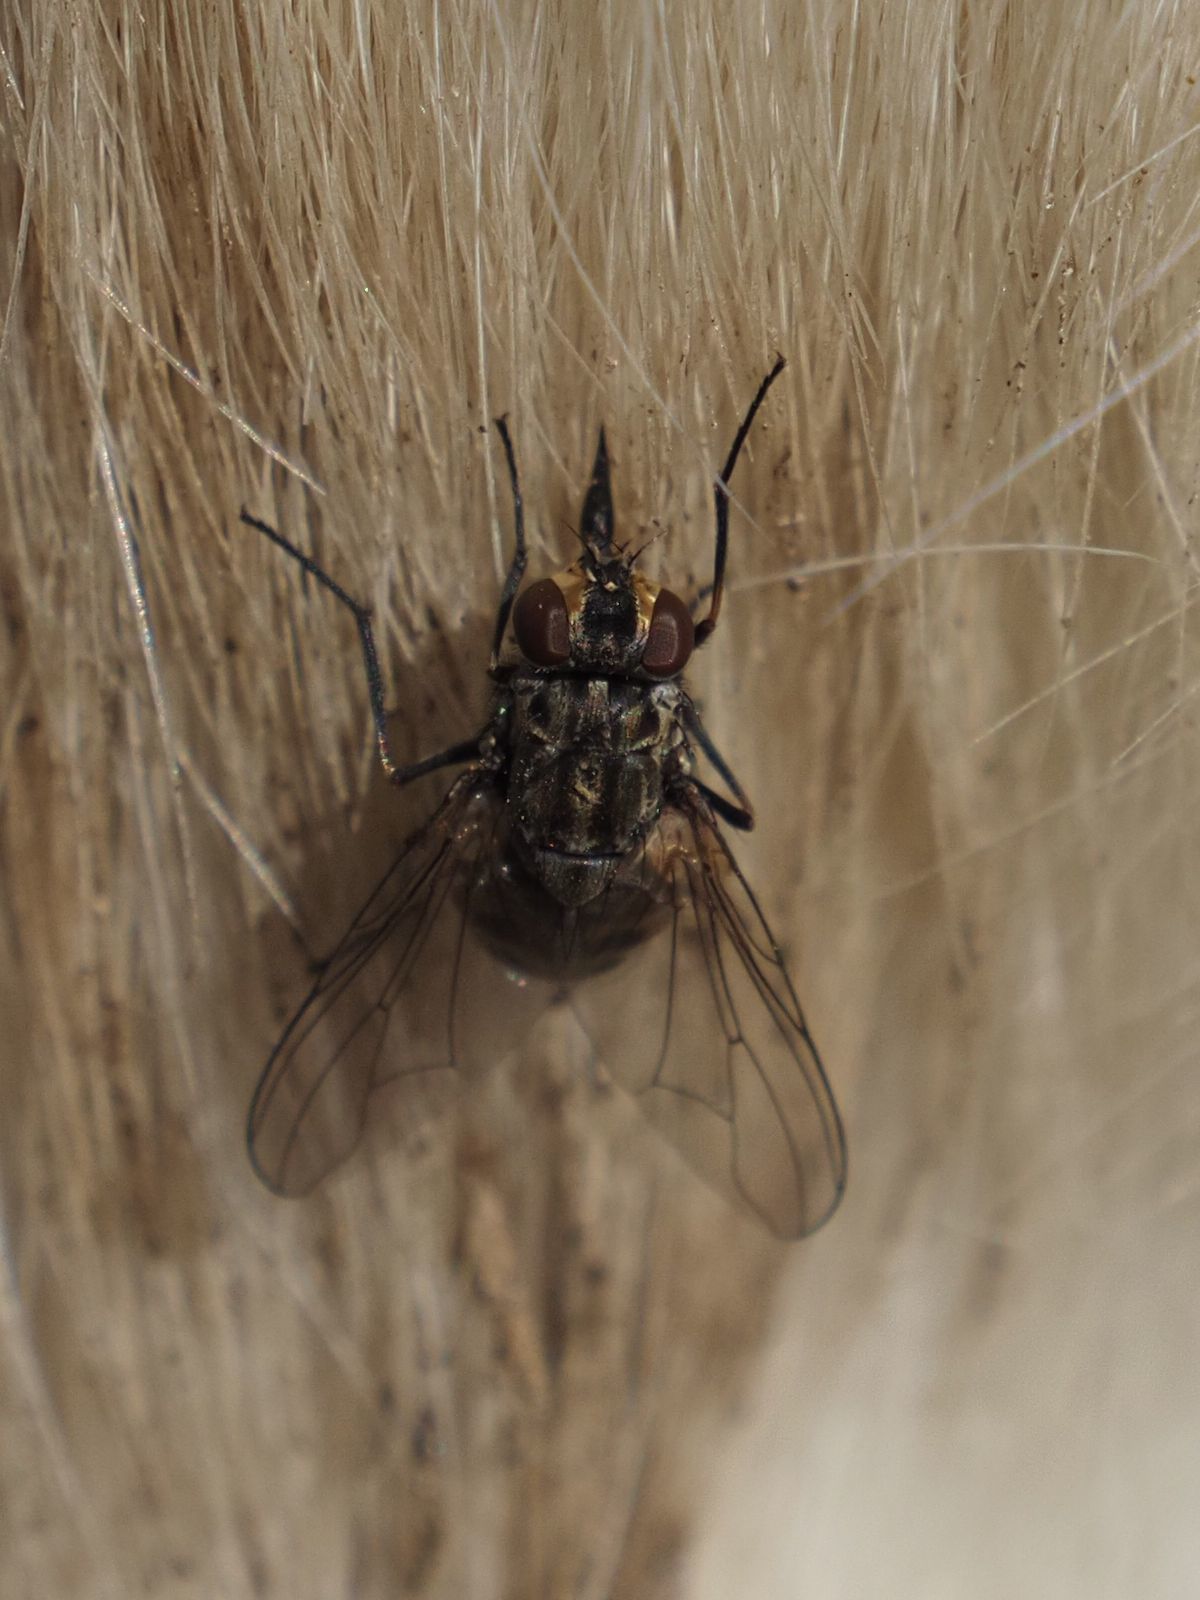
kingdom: Animalia
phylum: Arthropoda
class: Insecta
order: Diptera
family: Muscidae
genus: Stomoxys
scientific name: Stomoxys calcitrans
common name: Stable fly
